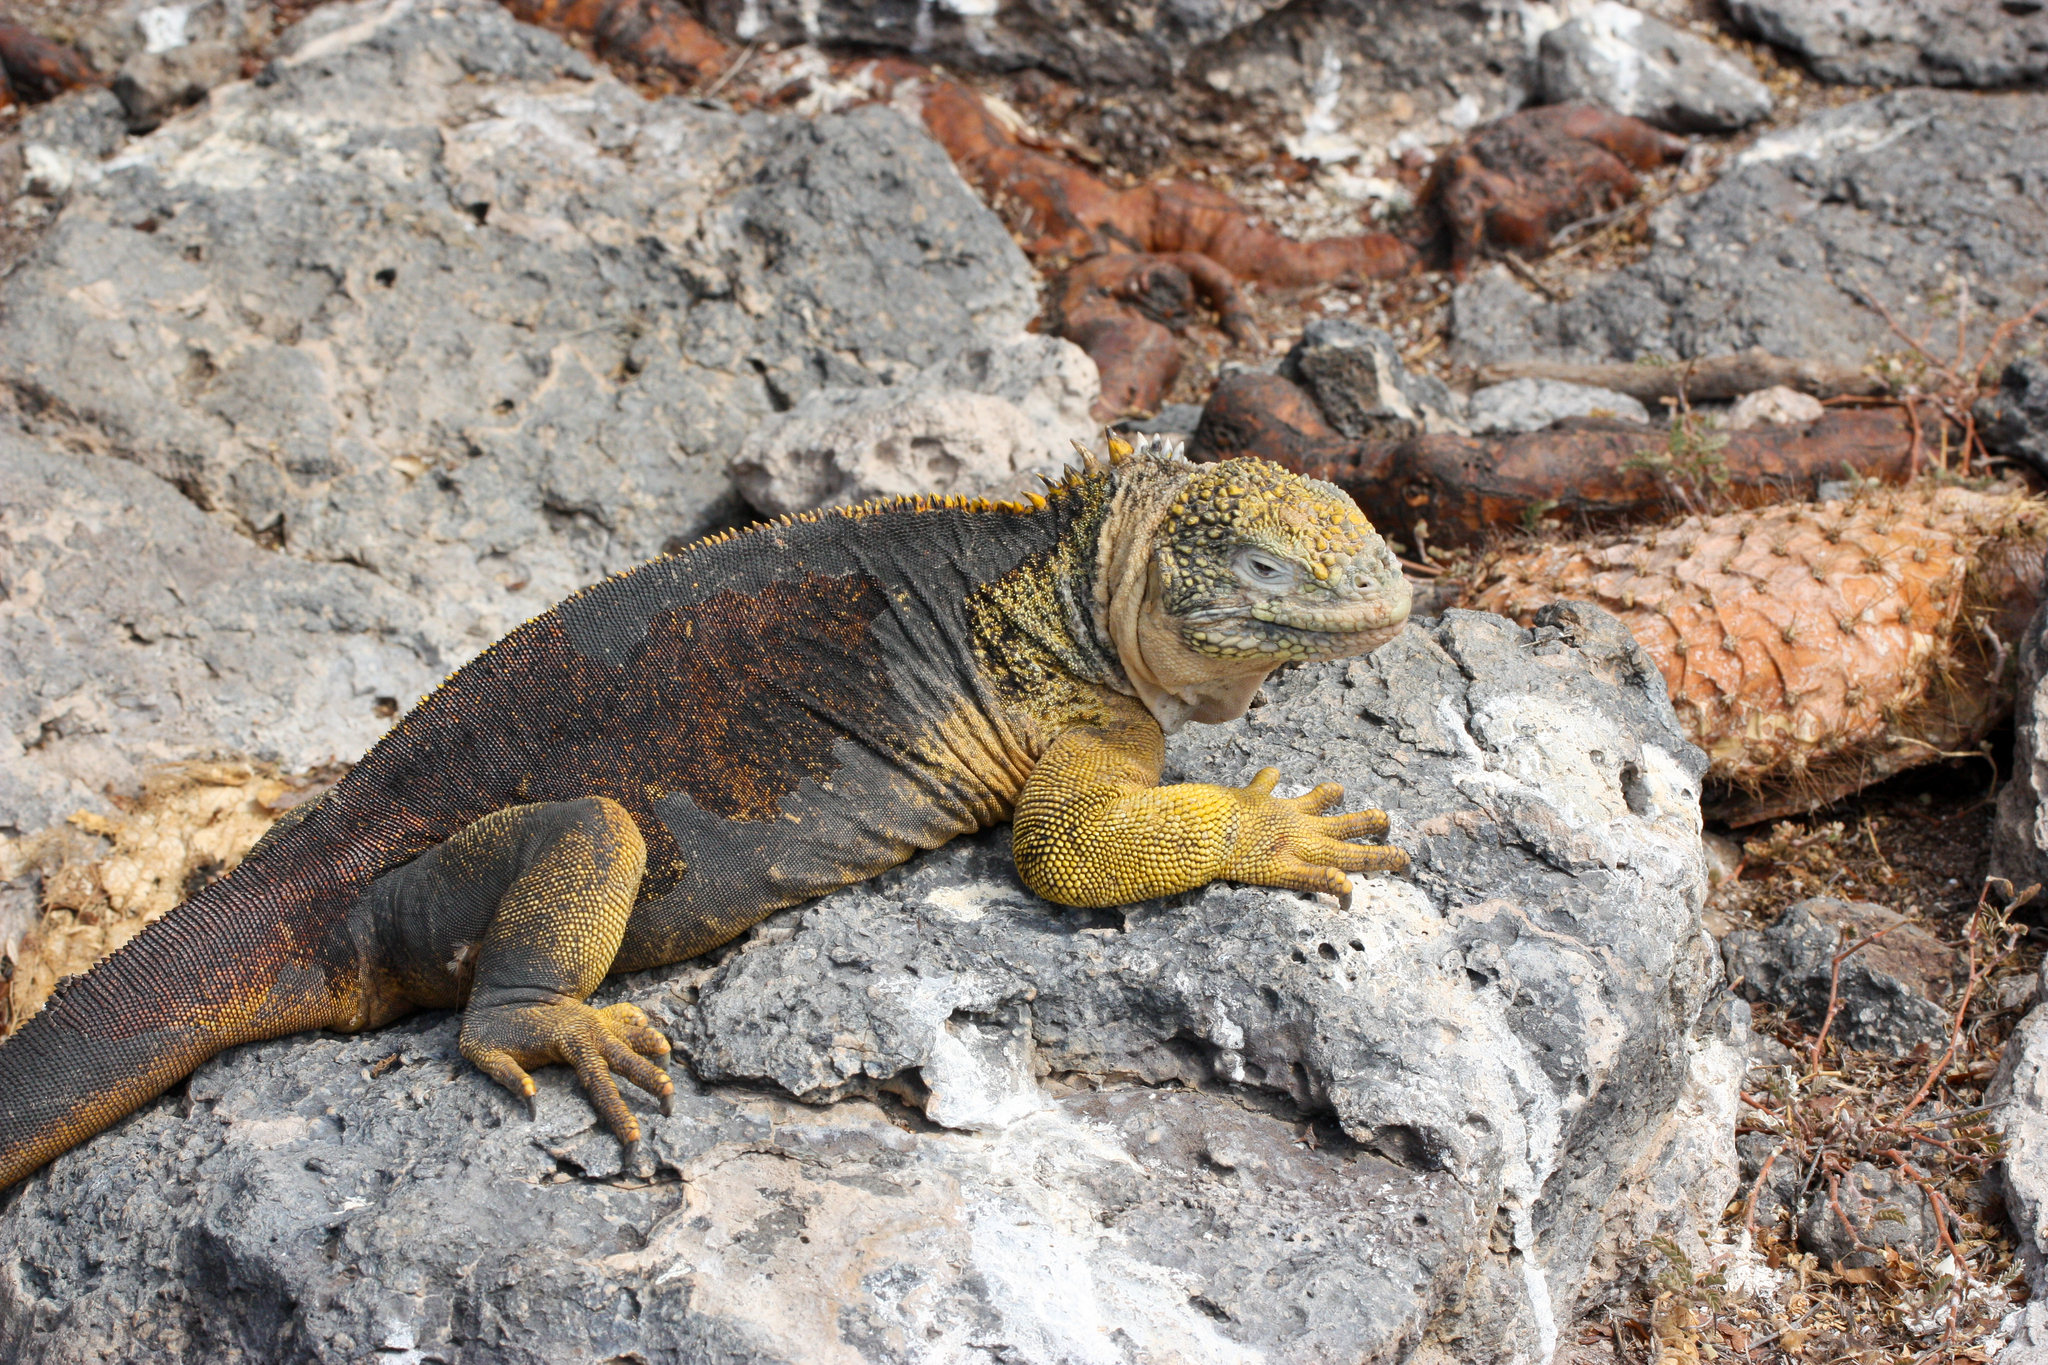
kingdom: Animalia
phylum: Chordata
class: Squamata
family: Iguanidae
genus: Conolophus
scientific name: Conolophus subcristatus
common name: Galapagos land iguana
